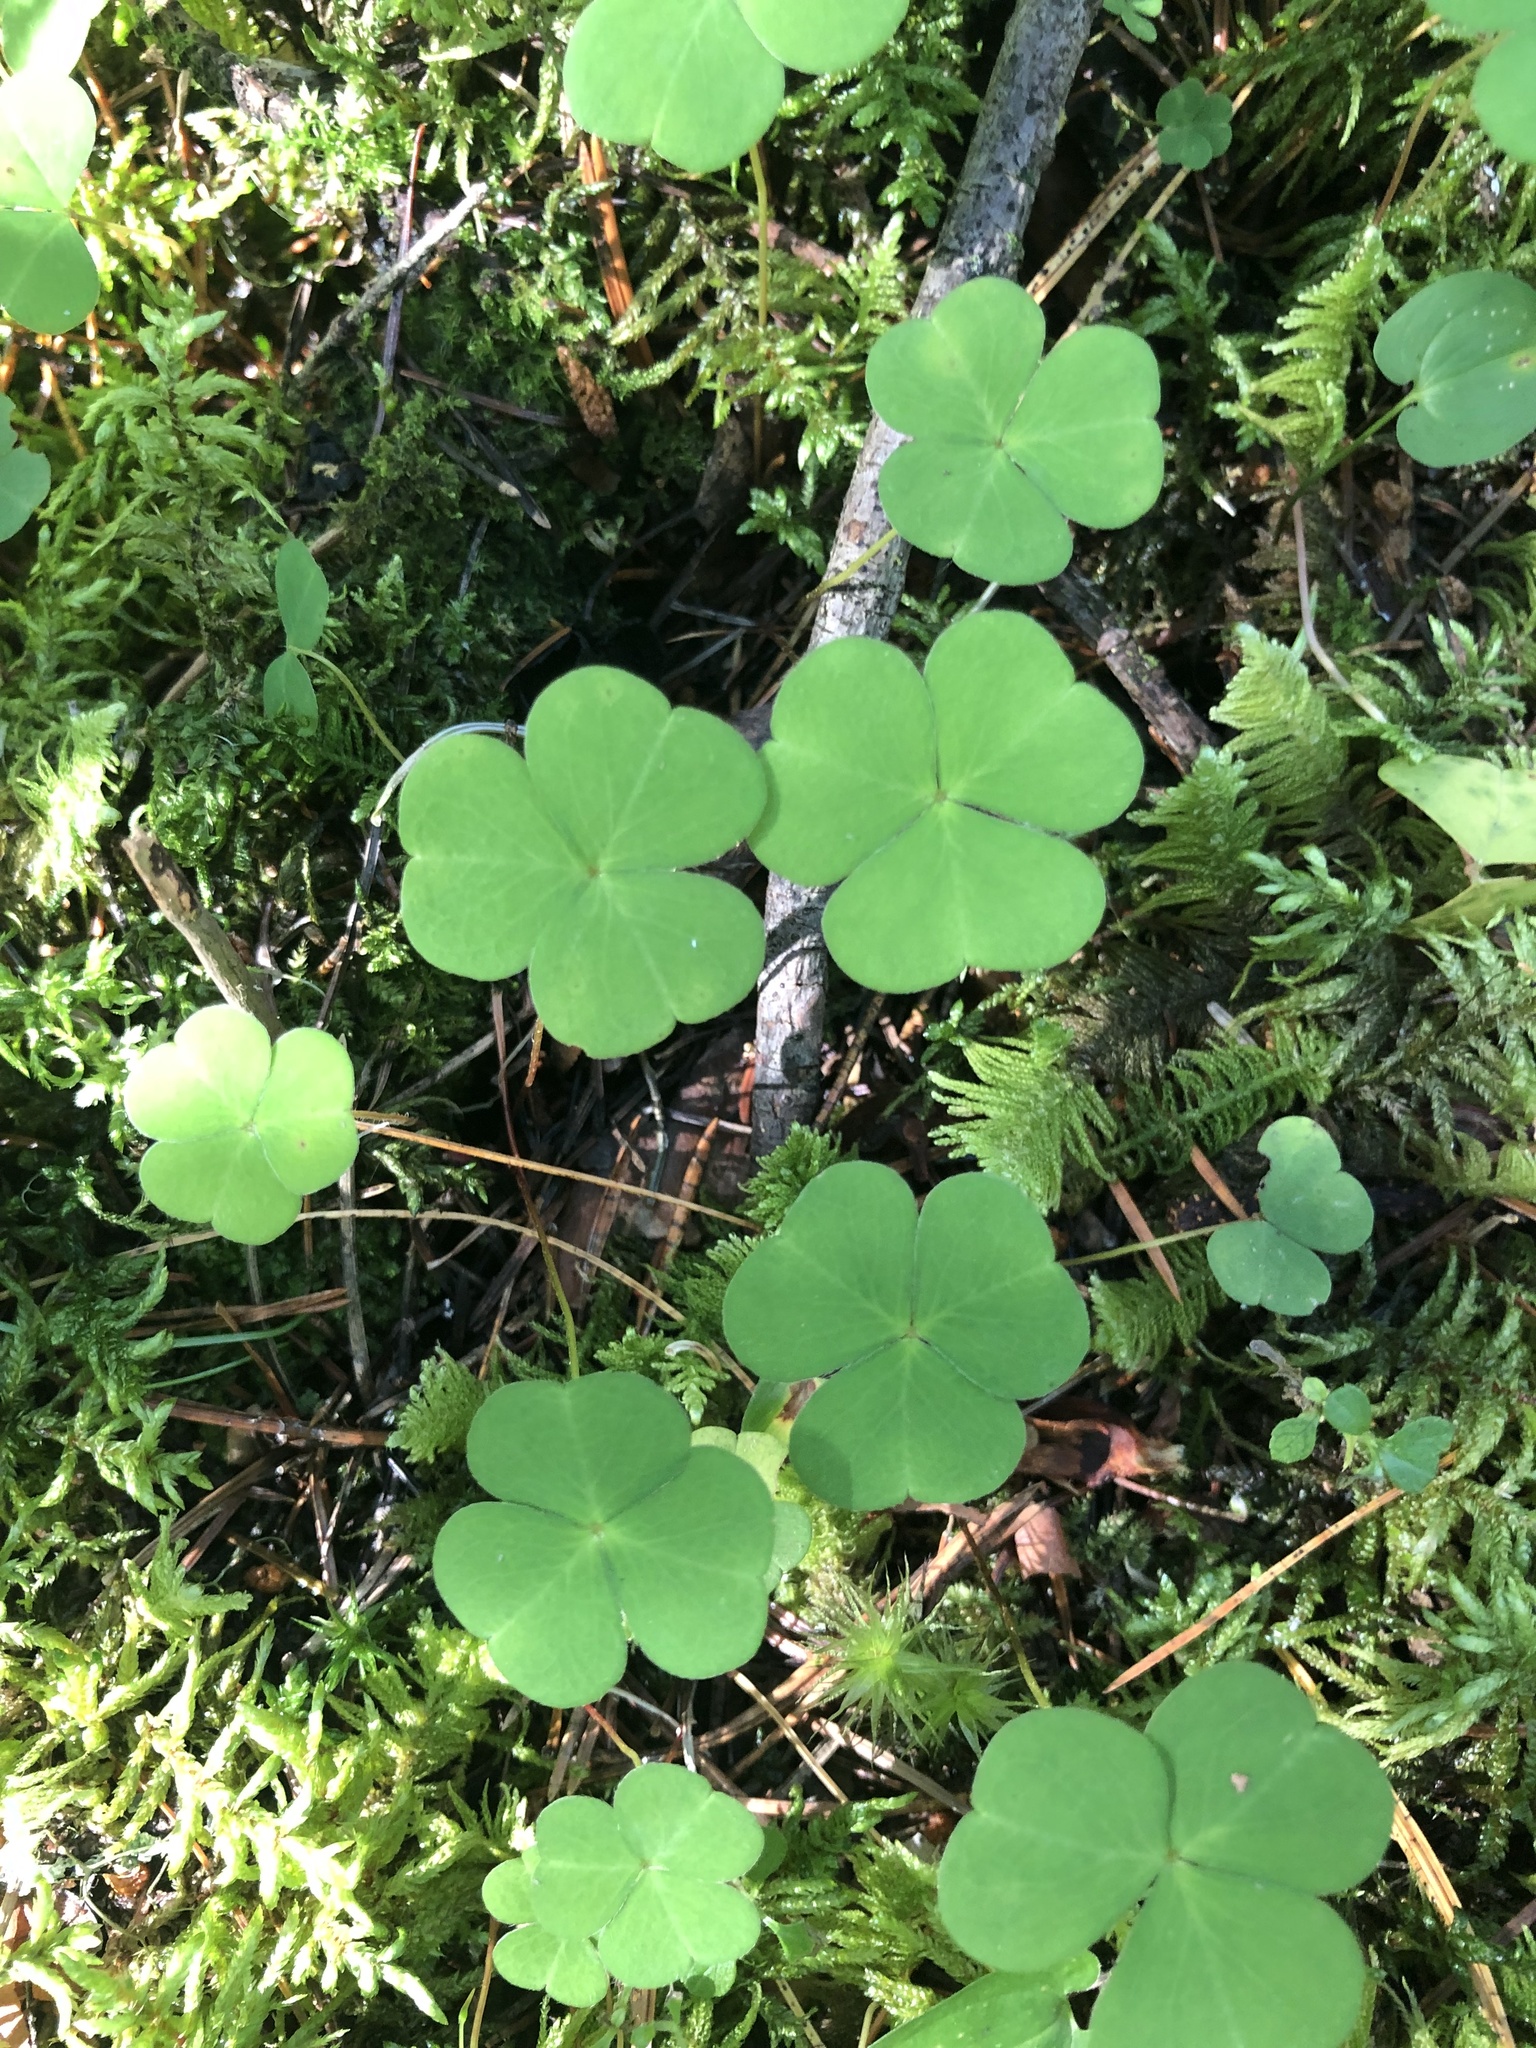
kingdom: Plantae
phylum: Tracheophyta
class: Magnoliopsida
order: Oxalidales
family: Oxalidaceae
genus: Oxalis
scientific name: Oxalis acetosella
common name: Wood-sorrel
